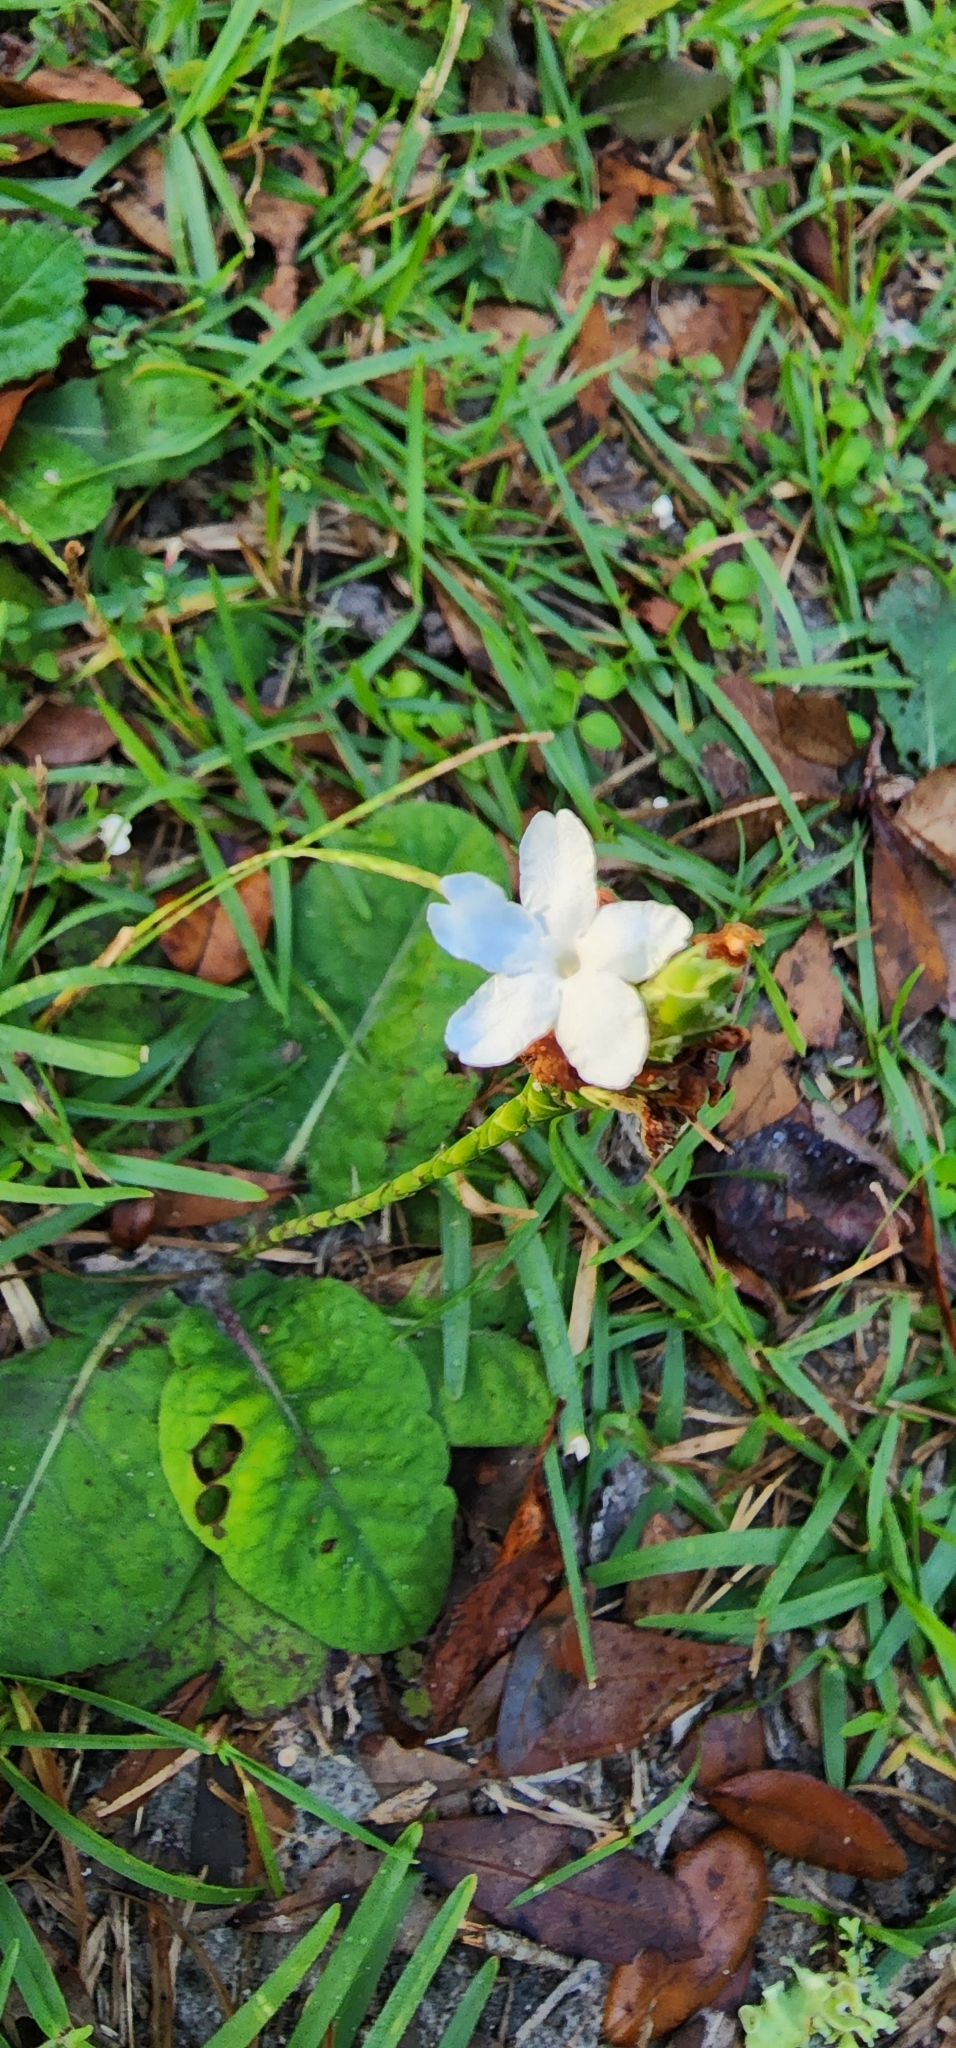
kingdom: Plantae
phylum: Tracheophyta
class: Magnoliopsida
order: Lamiales
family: Acanthaceae
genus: Elytraria
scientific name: Elytraria caroliniensis
